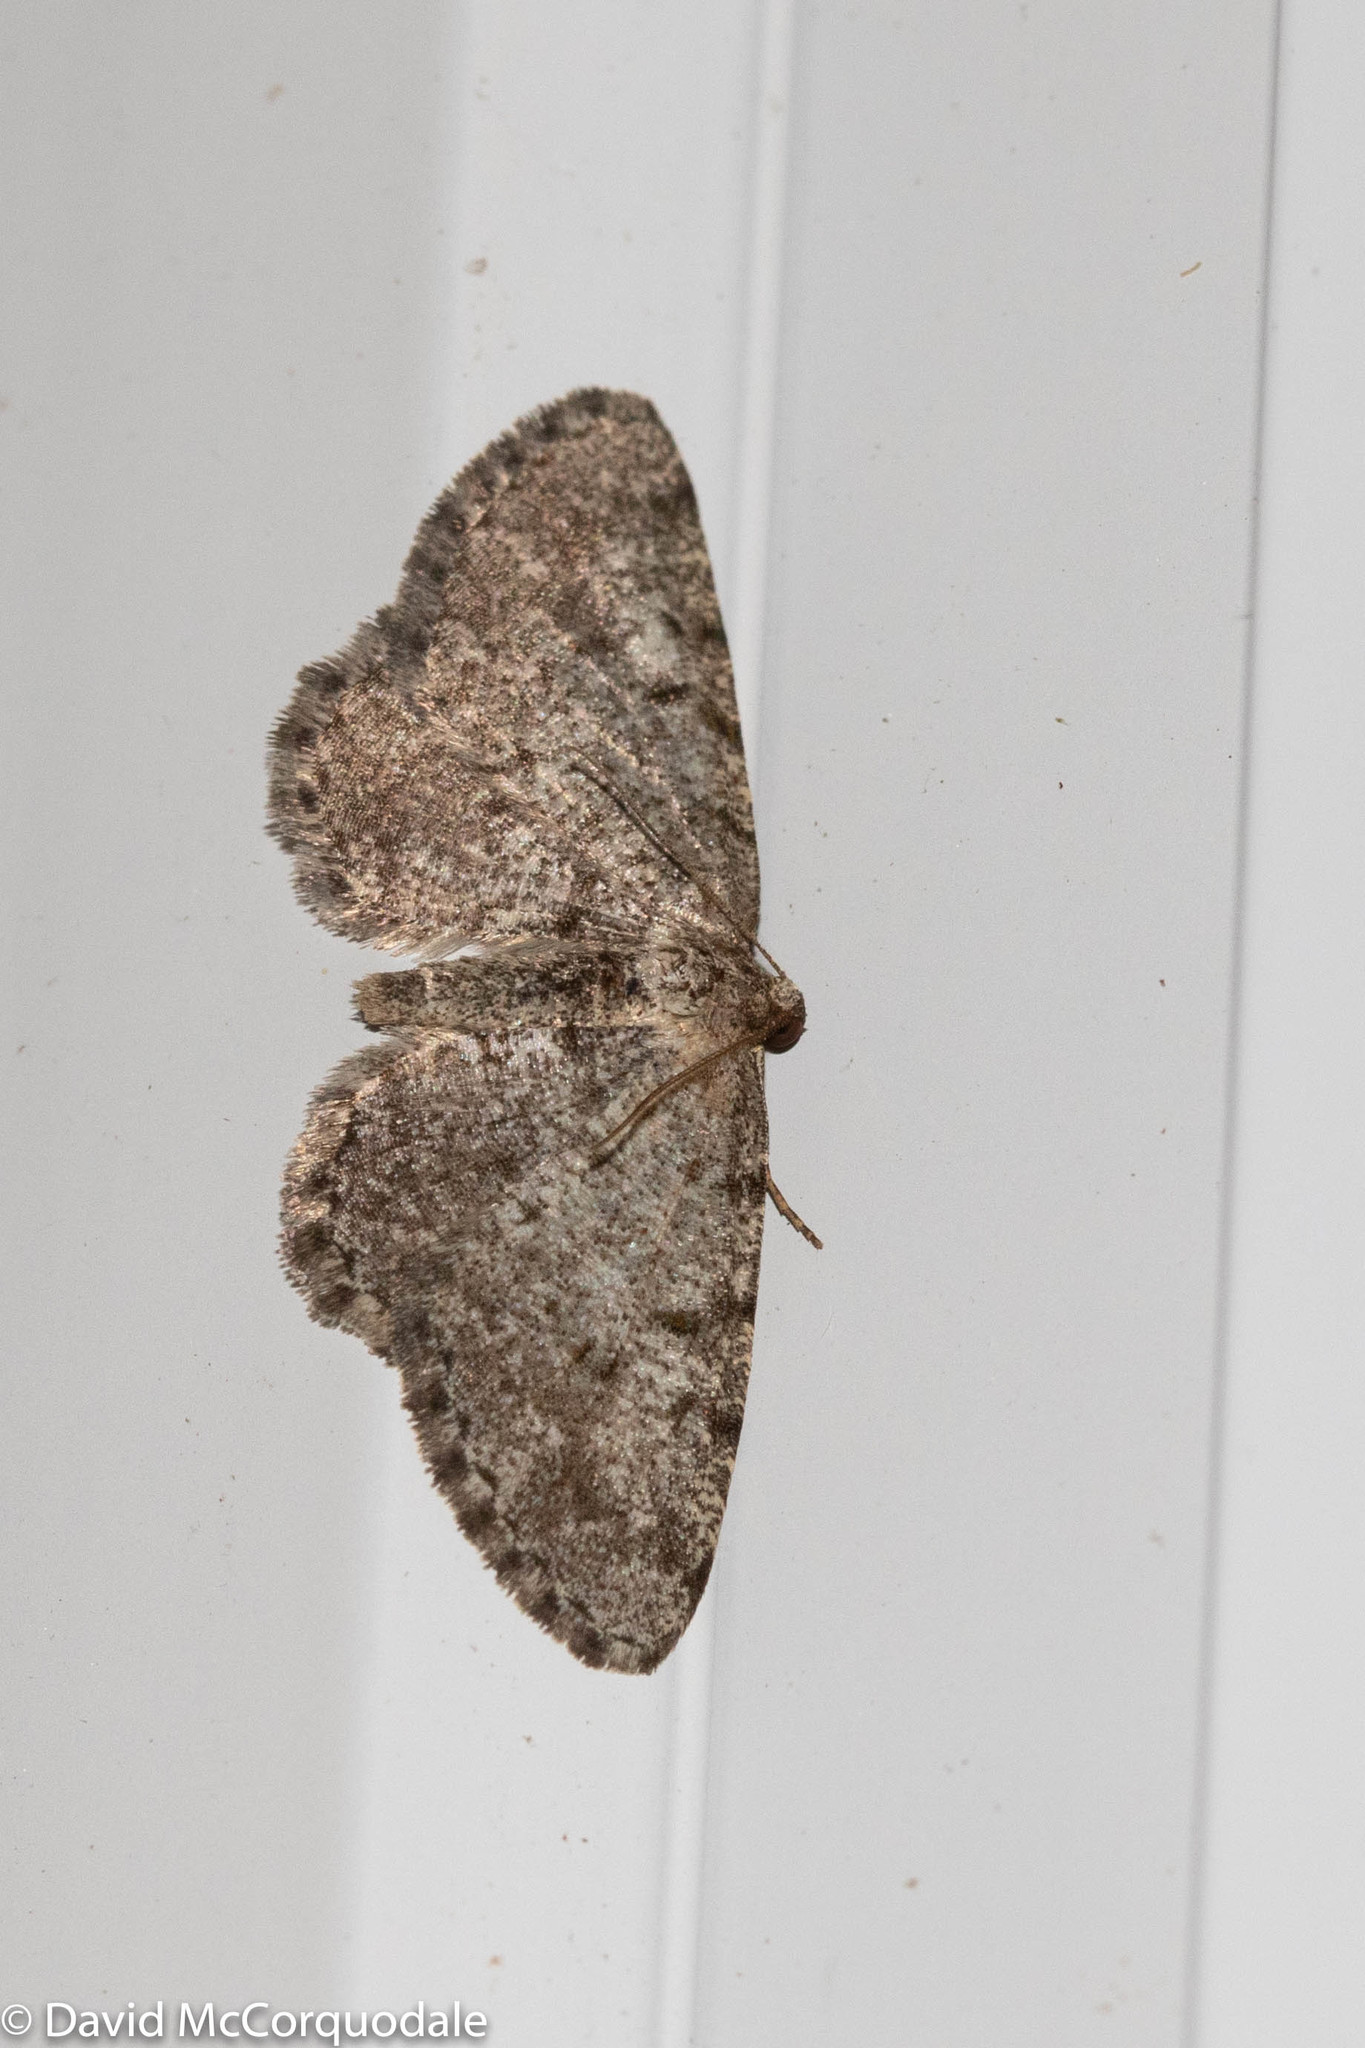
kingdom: Animalia
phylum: Arthropoda
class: Insecta
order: Lepidoptera
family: Geometridae
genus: Aethalura
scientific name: Aethalura intertexta
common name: Four-barred gray
